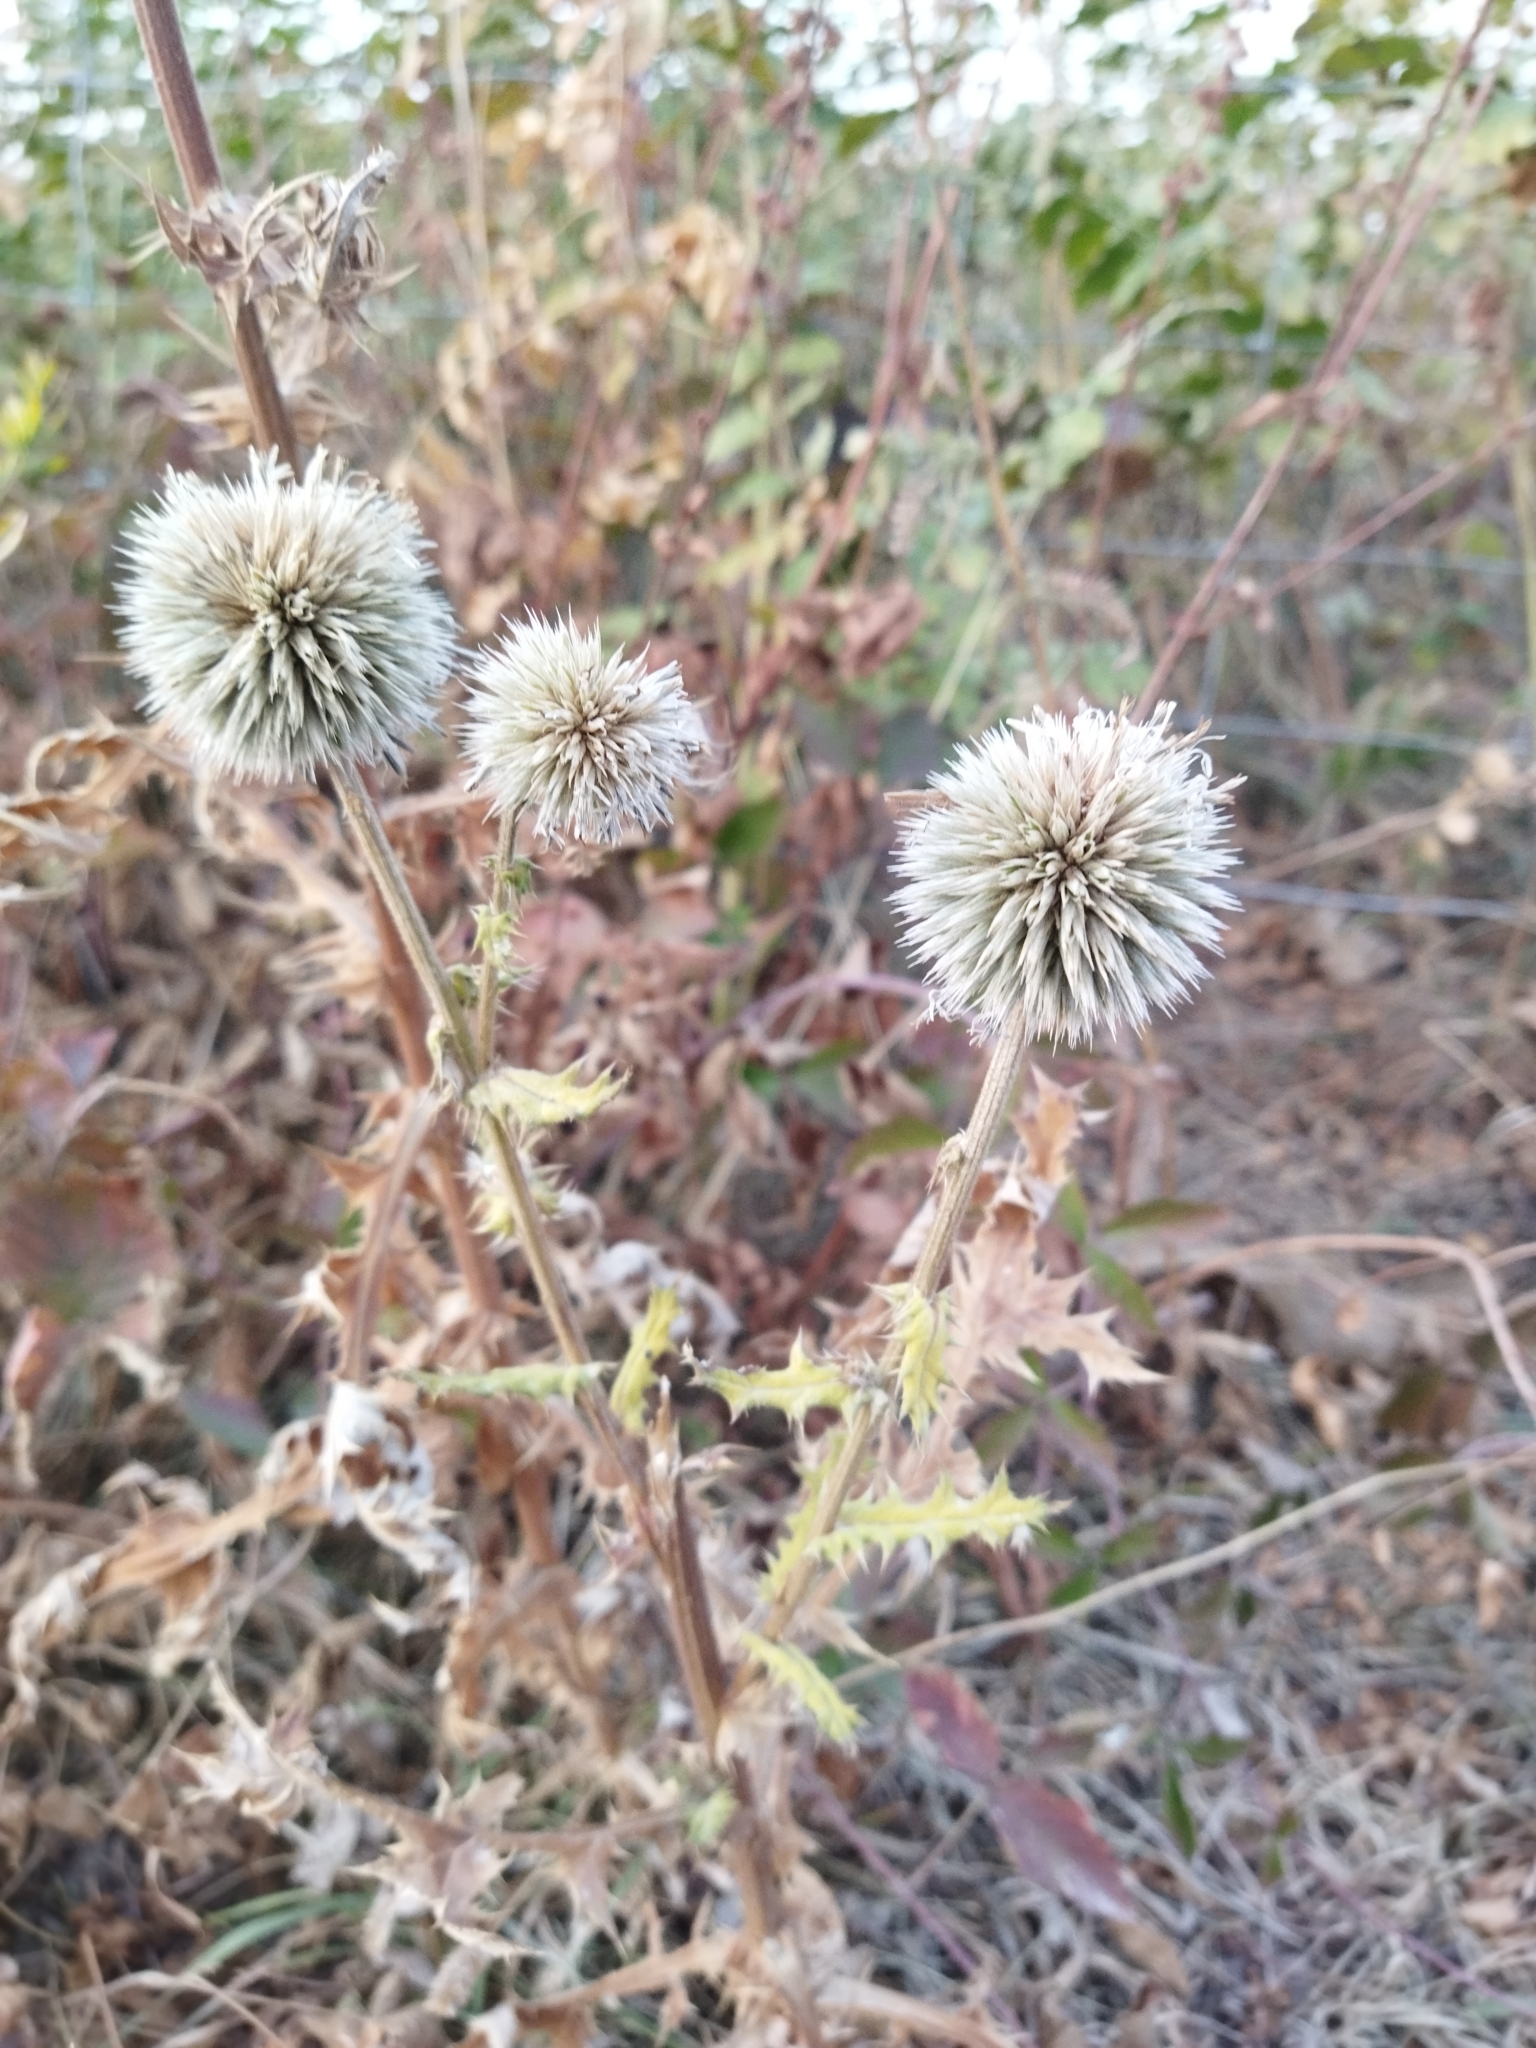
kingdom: Plantae
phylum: Tracheophyta
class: Magnoliopsida
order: Asterales
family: Asteraceae
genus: Echinops
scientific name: Echinops chantavicus
